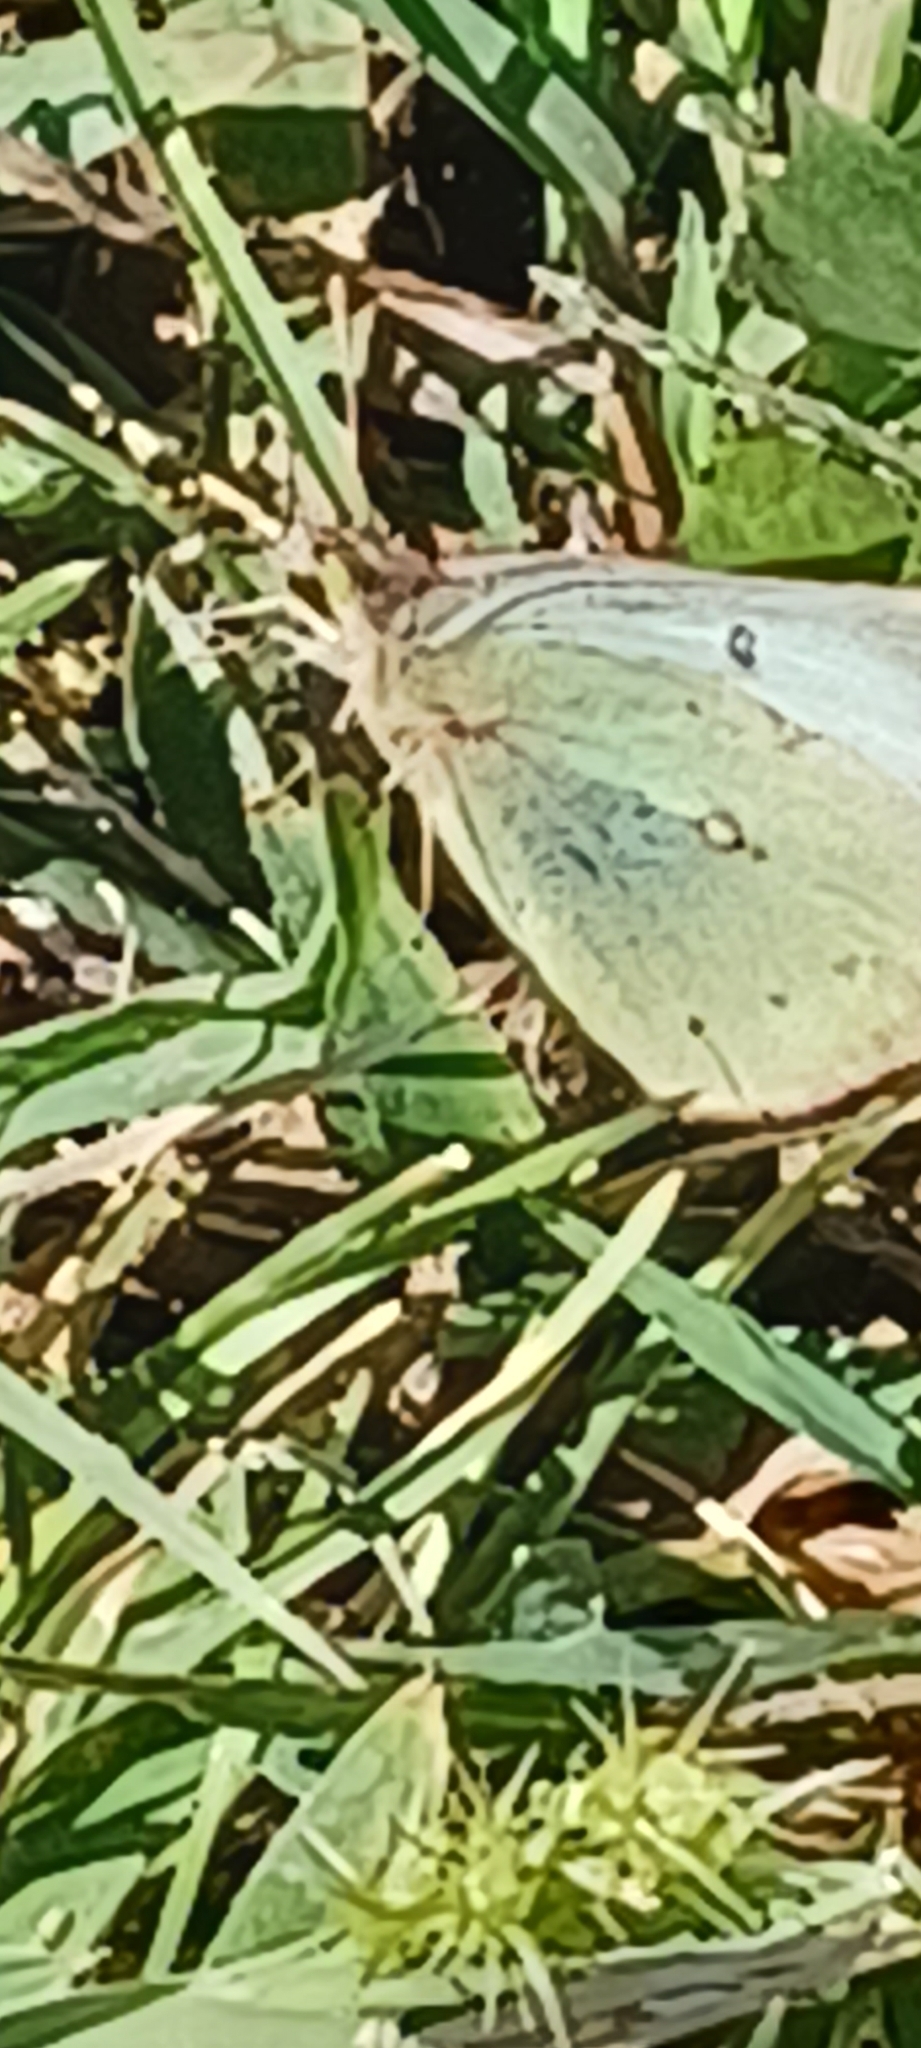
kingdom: Animalia
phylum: Arthropoda
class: Insecta
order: Lepidoptera
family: Pieridae
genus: Colias
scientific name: Colias philodice
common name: Clouded sulphur
